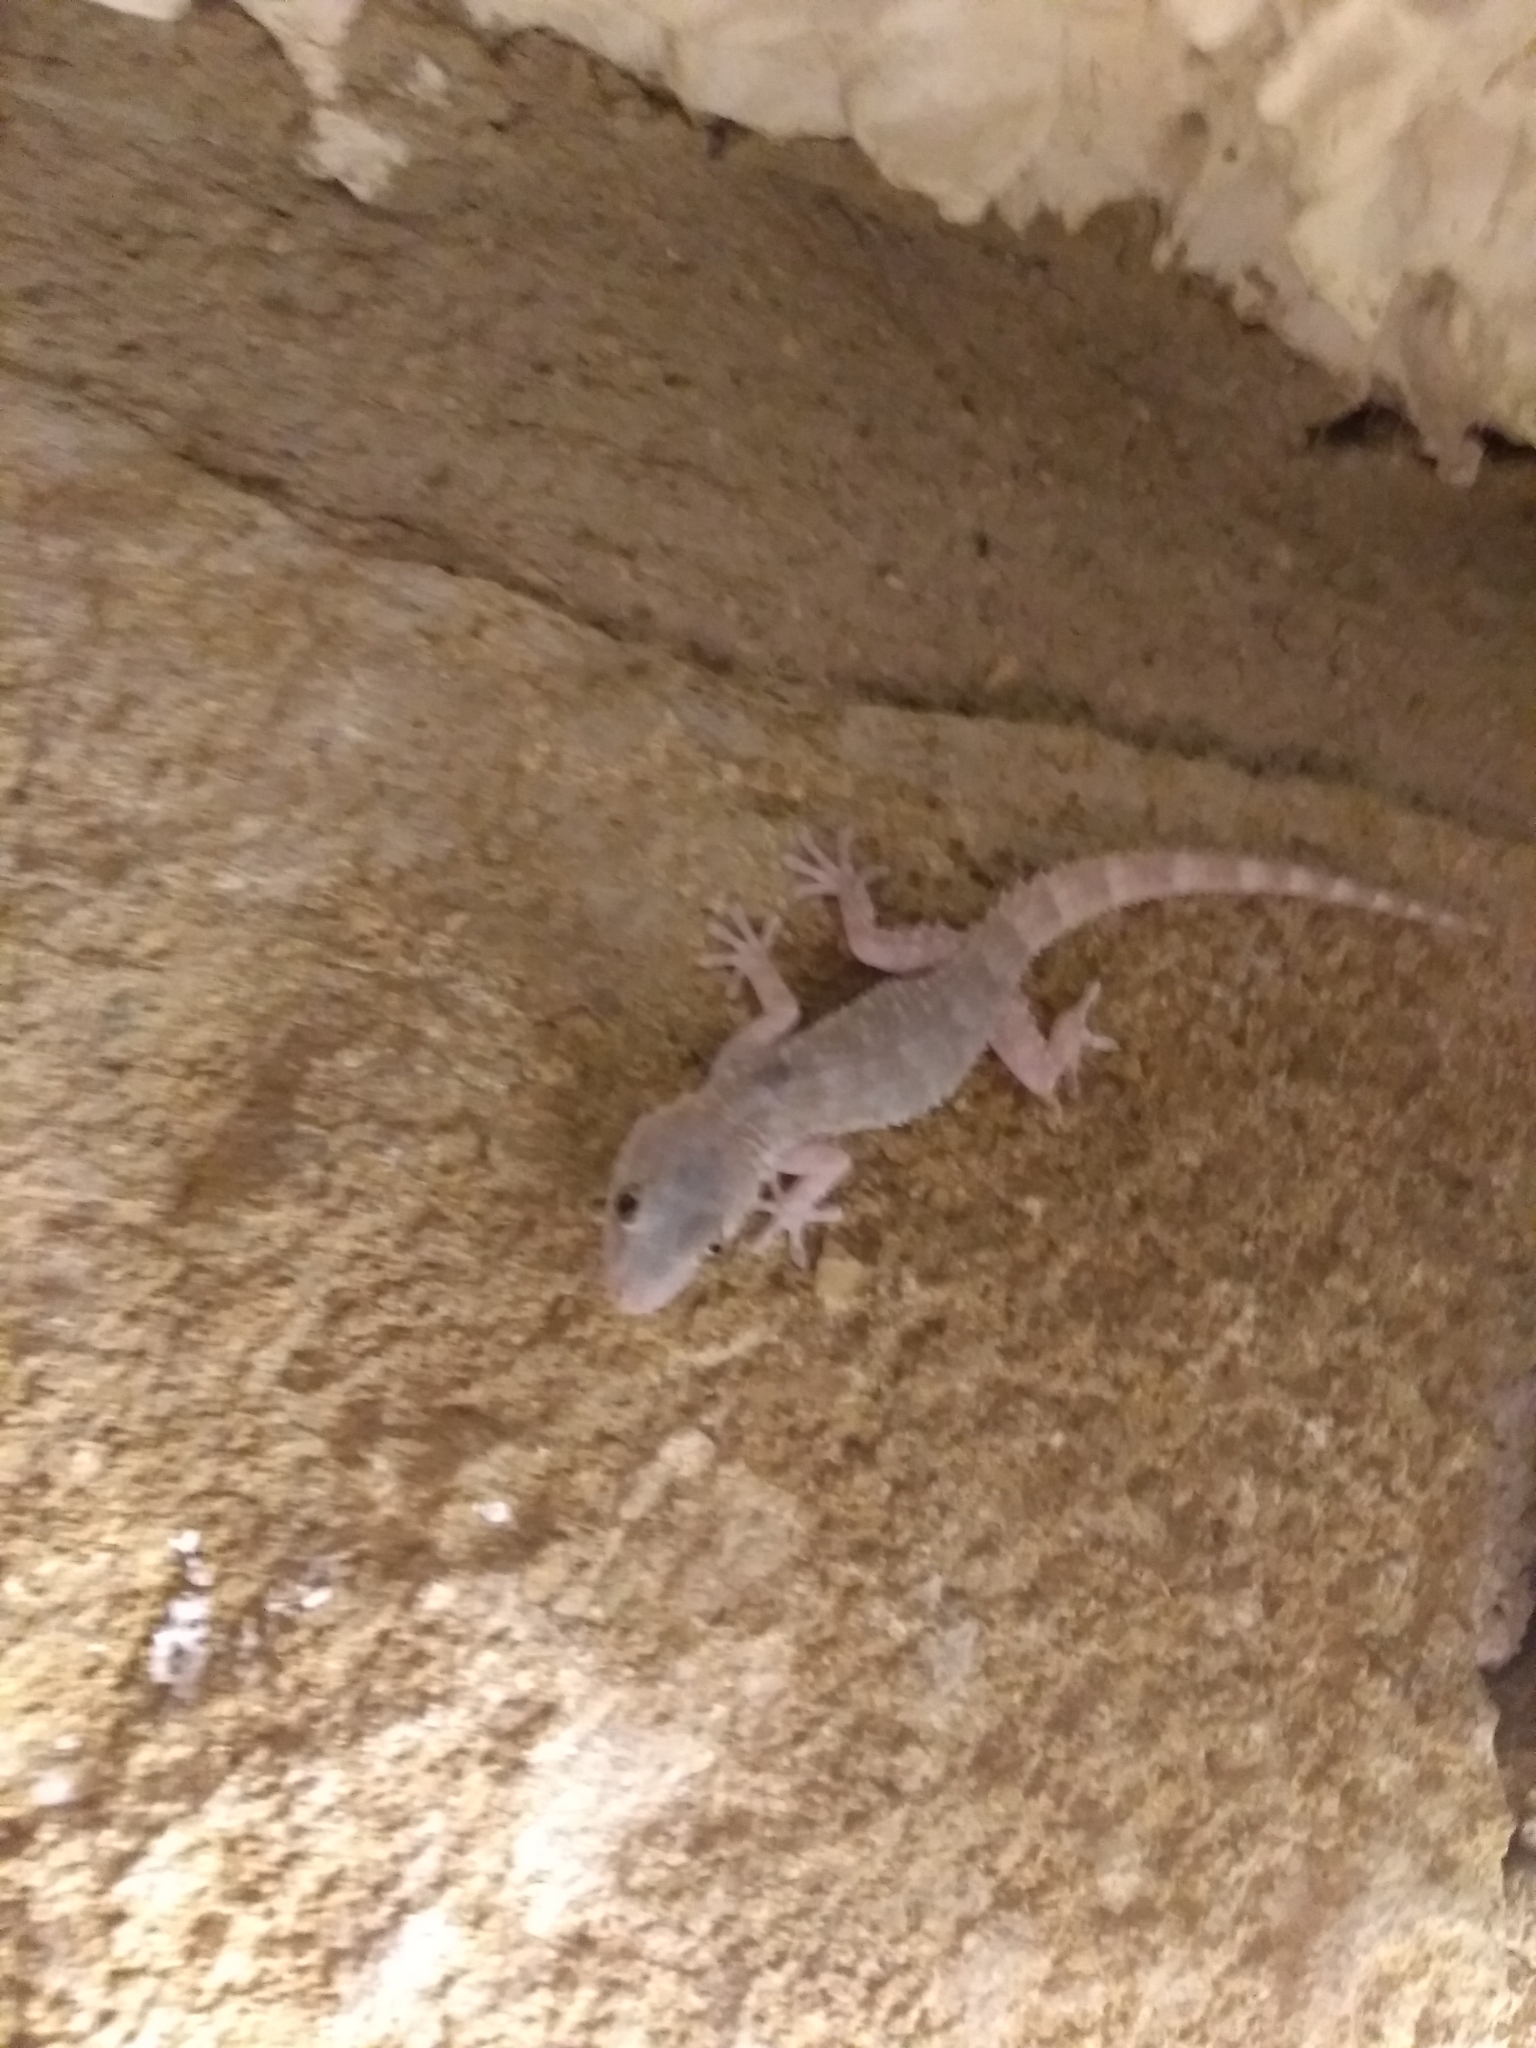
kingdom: Animalia
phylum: Chordata
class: Squamata
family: Phyllodactylidae
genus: Tarentola
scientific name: Tarentola mauritanica
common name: Moorish gecko
